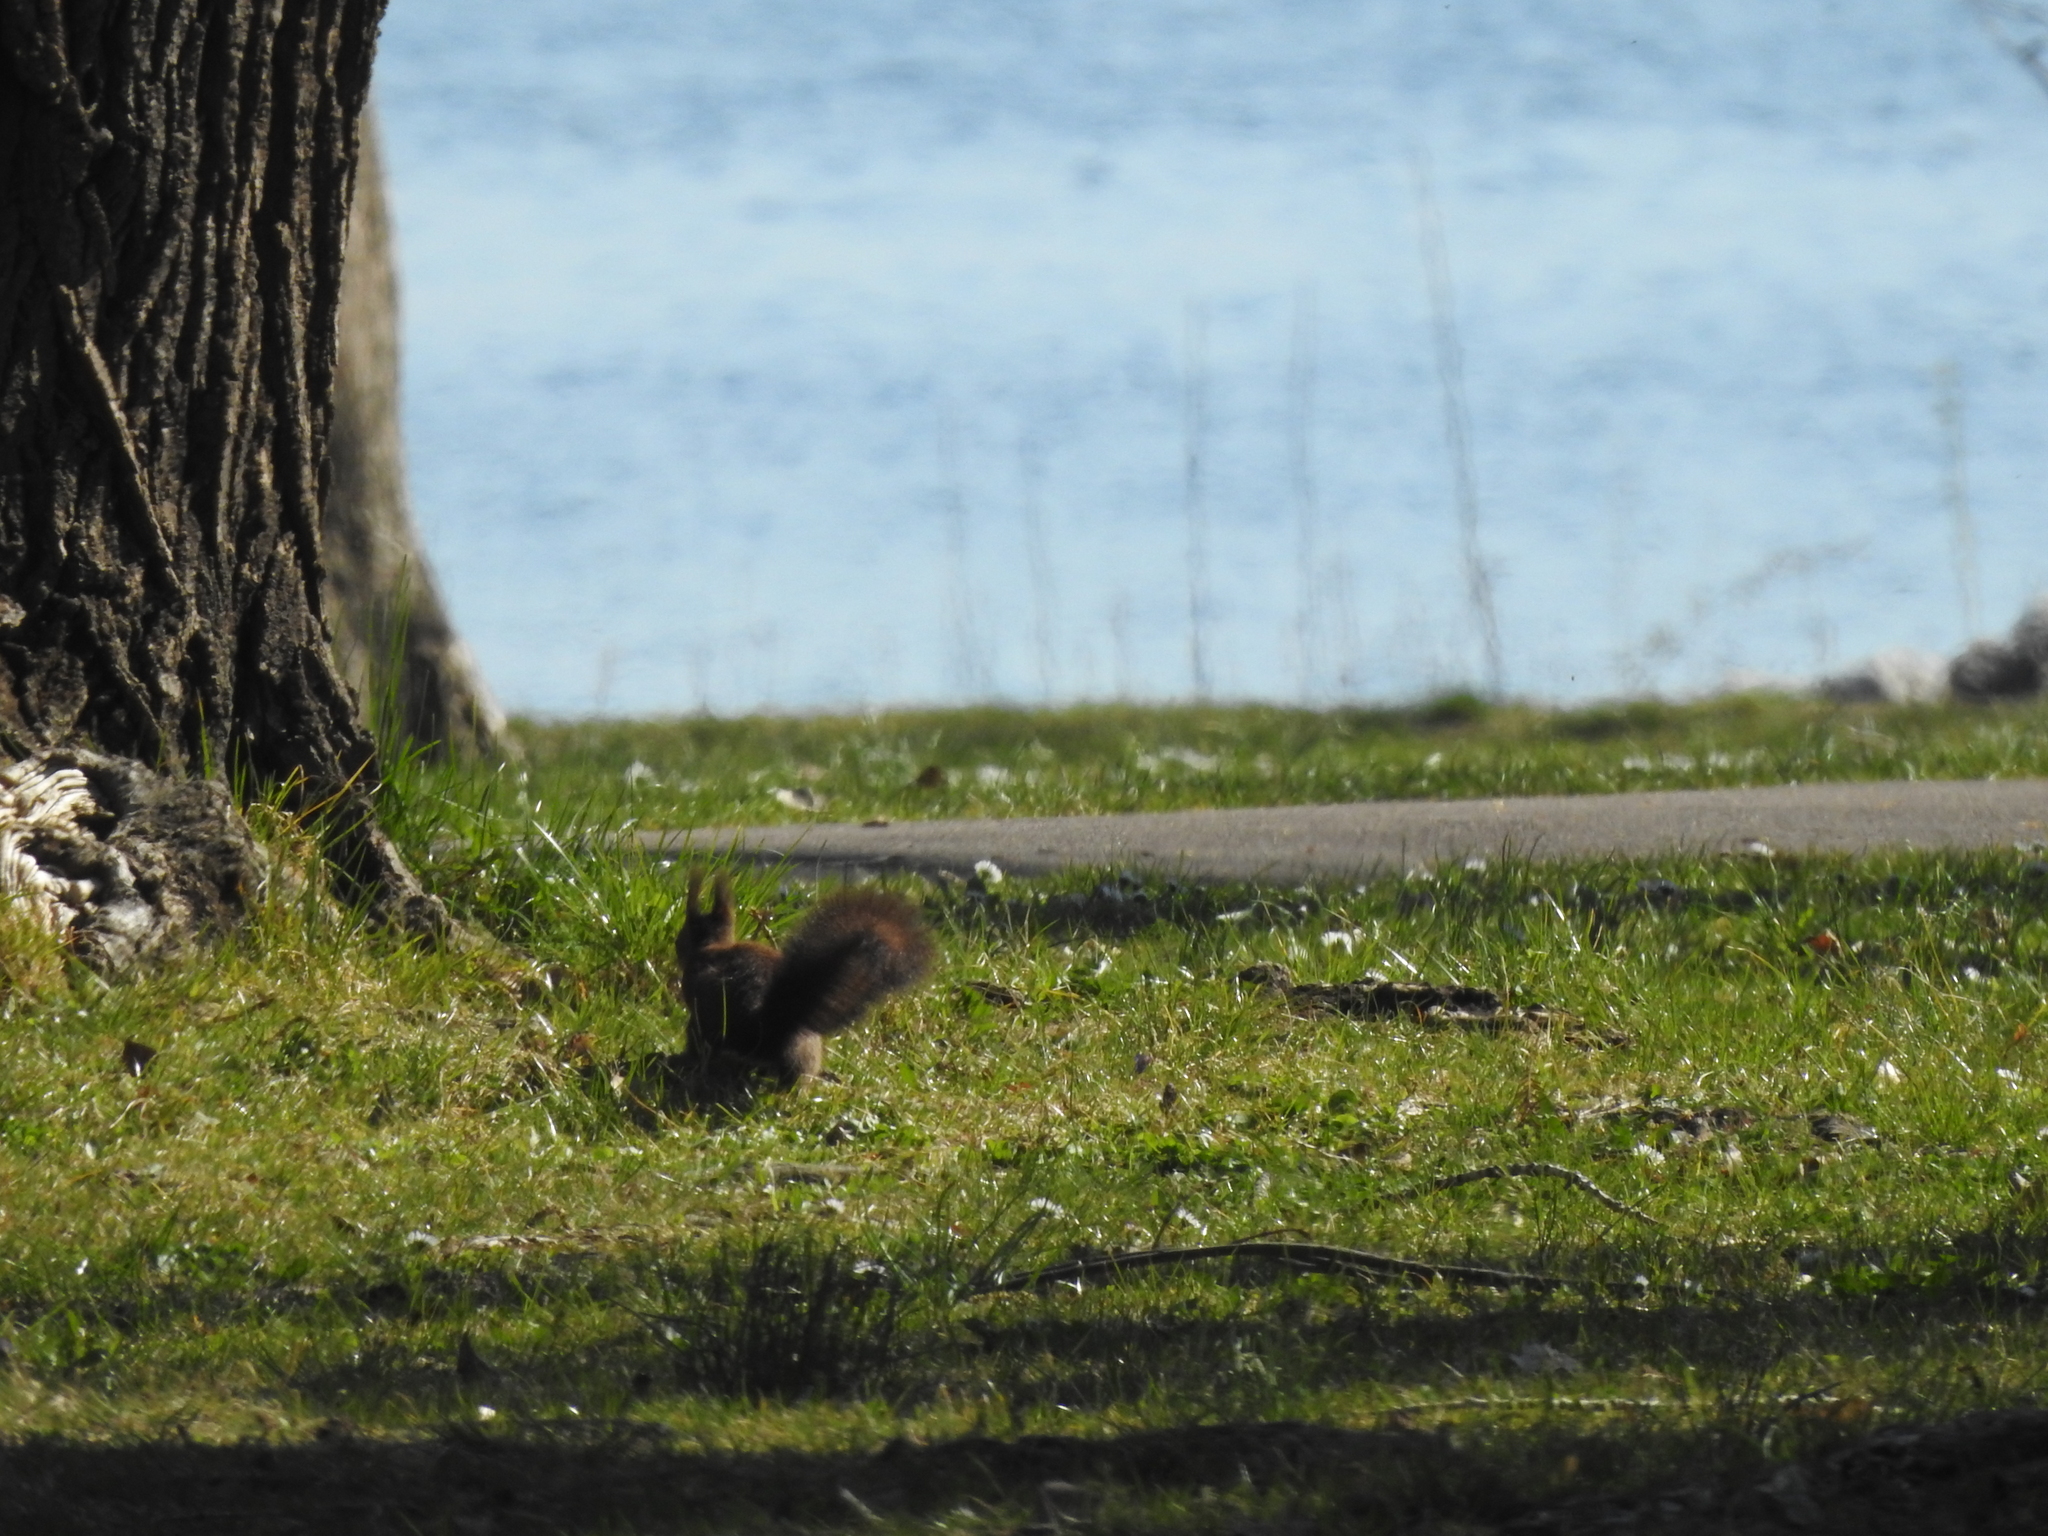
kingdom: Animalia
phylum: Chordata
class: Mammalia
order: Rodentia
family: Sciuridae
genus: Sciurus
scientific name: Sciurus vulgaris
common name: Eurasian red squirrel
